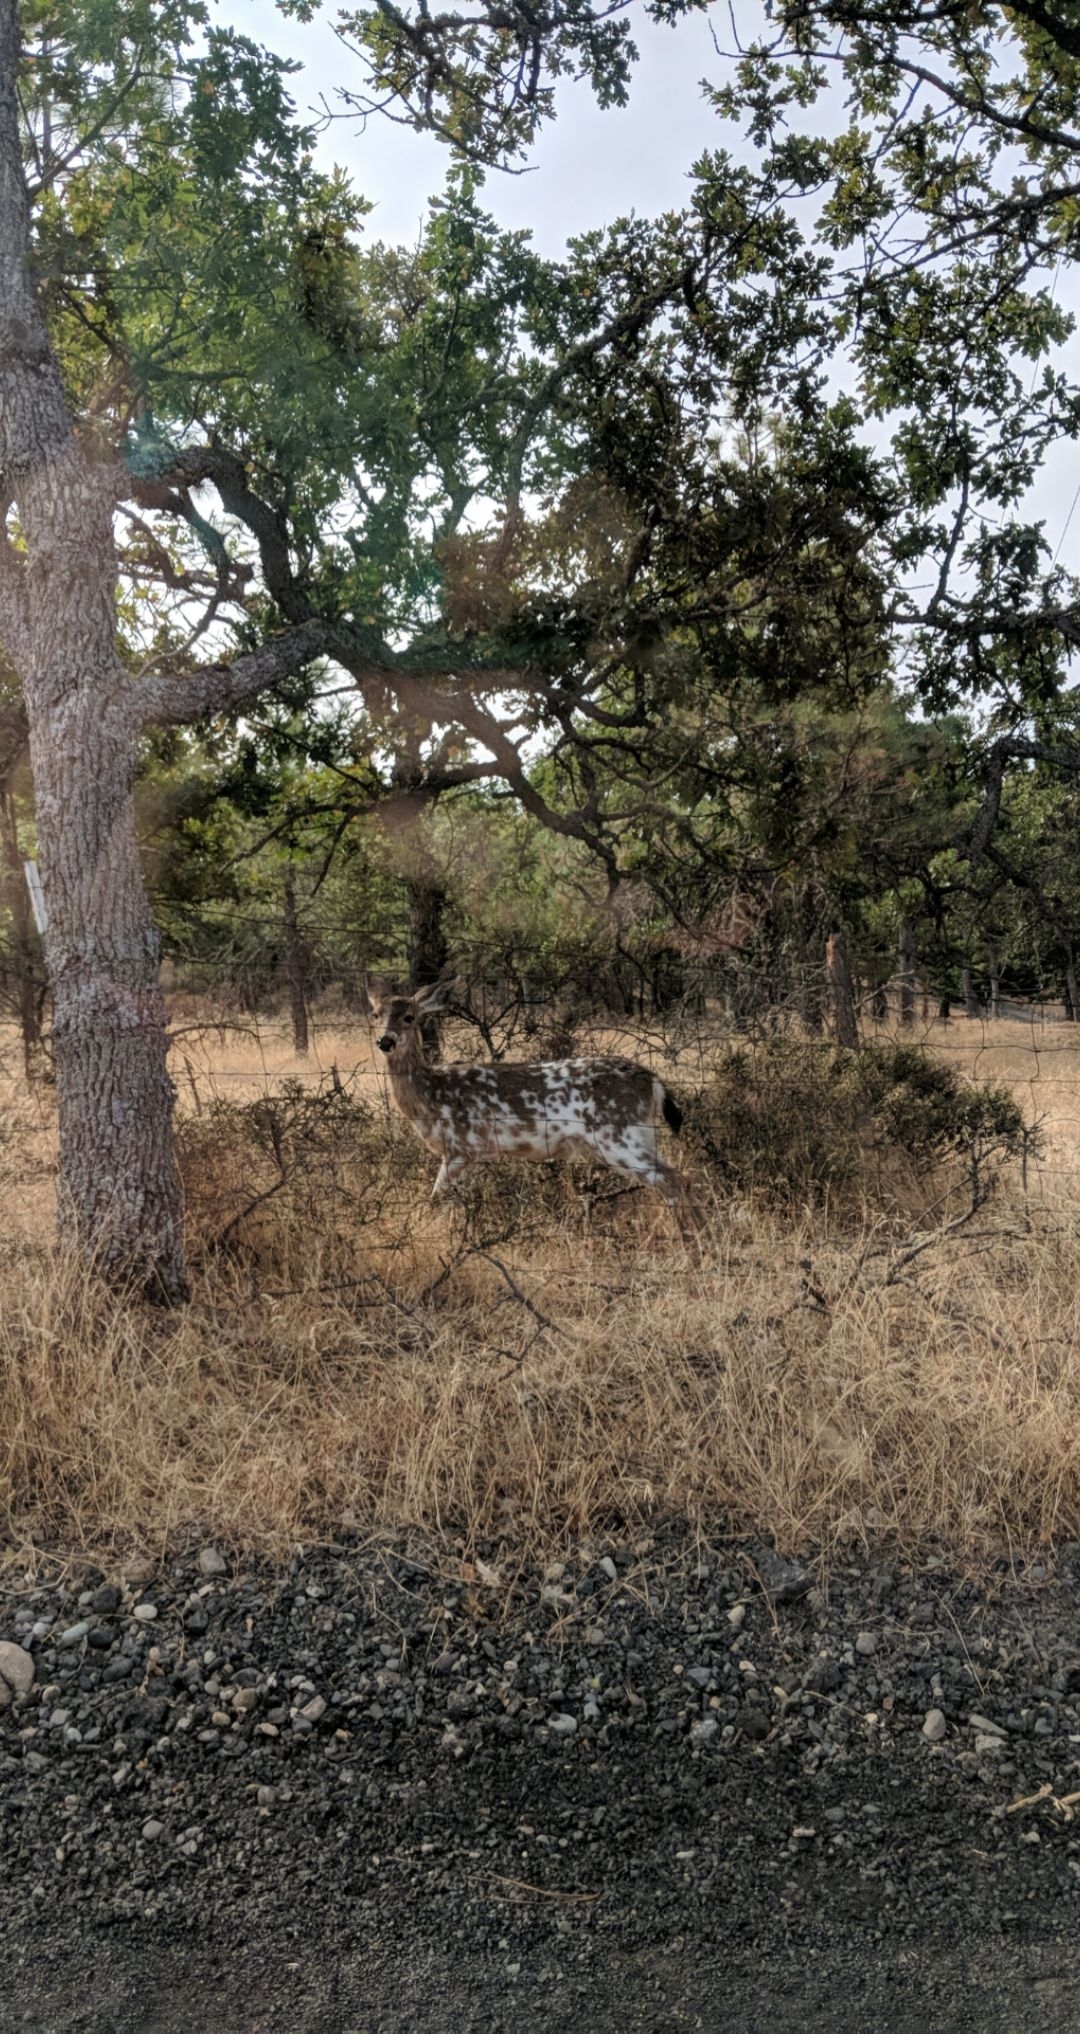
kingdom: Animalia
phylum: Chordata
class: Mammalia
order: Artiodactyla
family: Cervidae
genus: Odocoileus
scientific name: Odocoileus hemionus
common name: Mule deer
